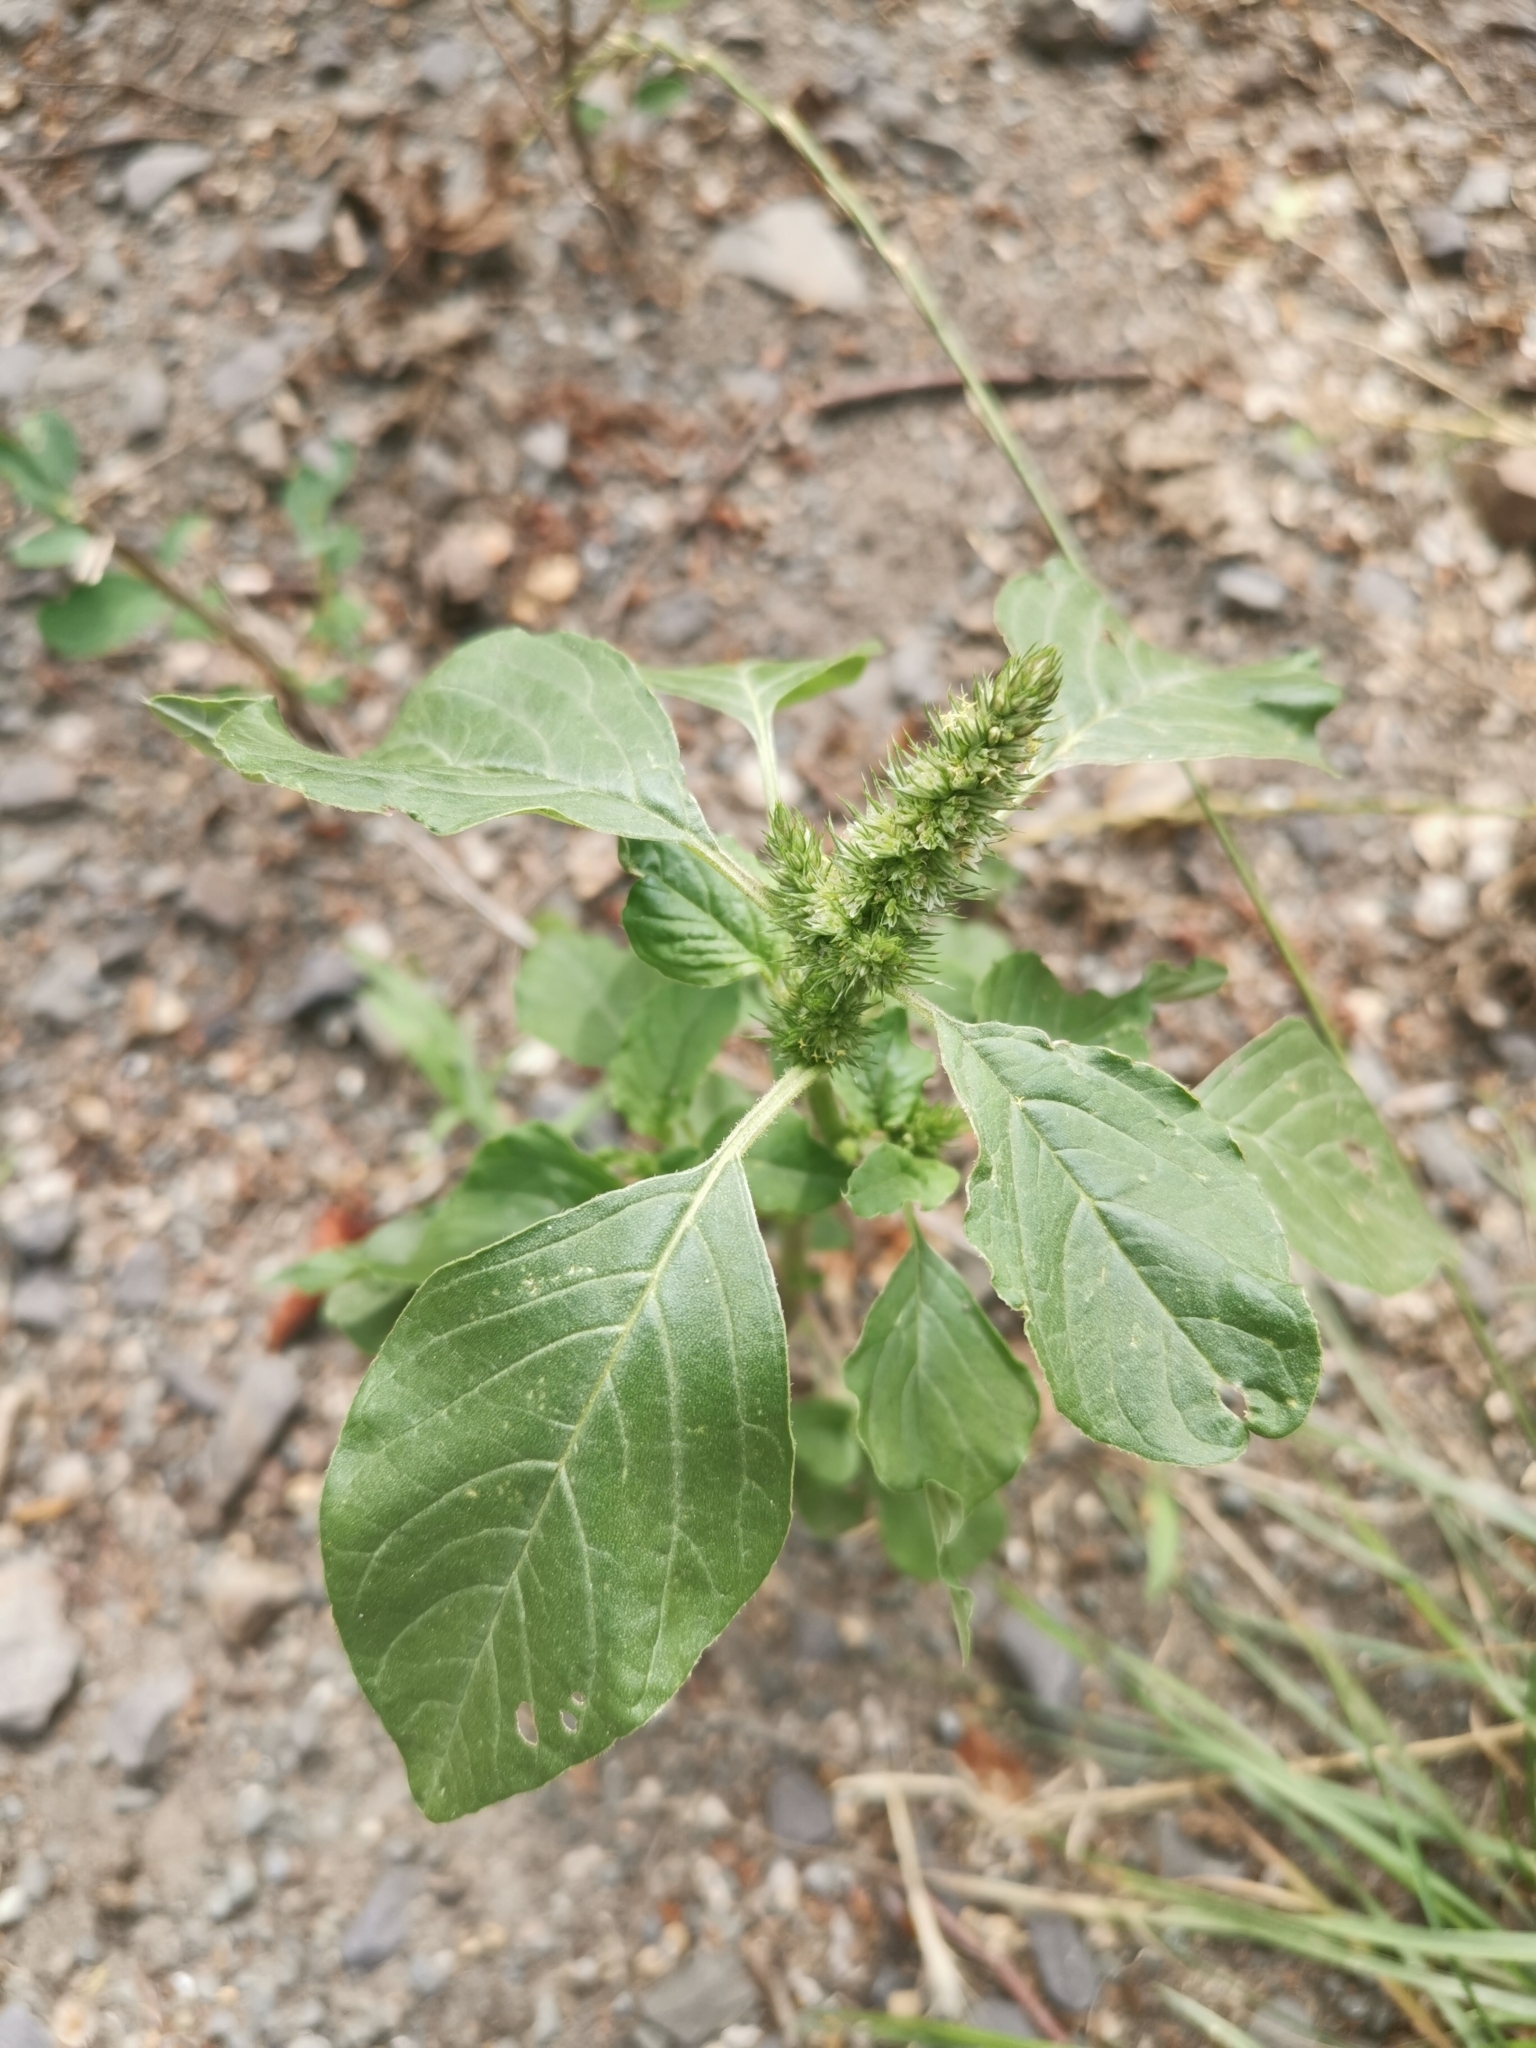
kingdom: Plantae
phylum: Tracheophyta
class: Magnoliopsida
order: Caryophyllales
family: Amaranthaceae
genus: Amaranthus
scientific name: Amaranthus retroflexus
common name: Redroot amaranth
